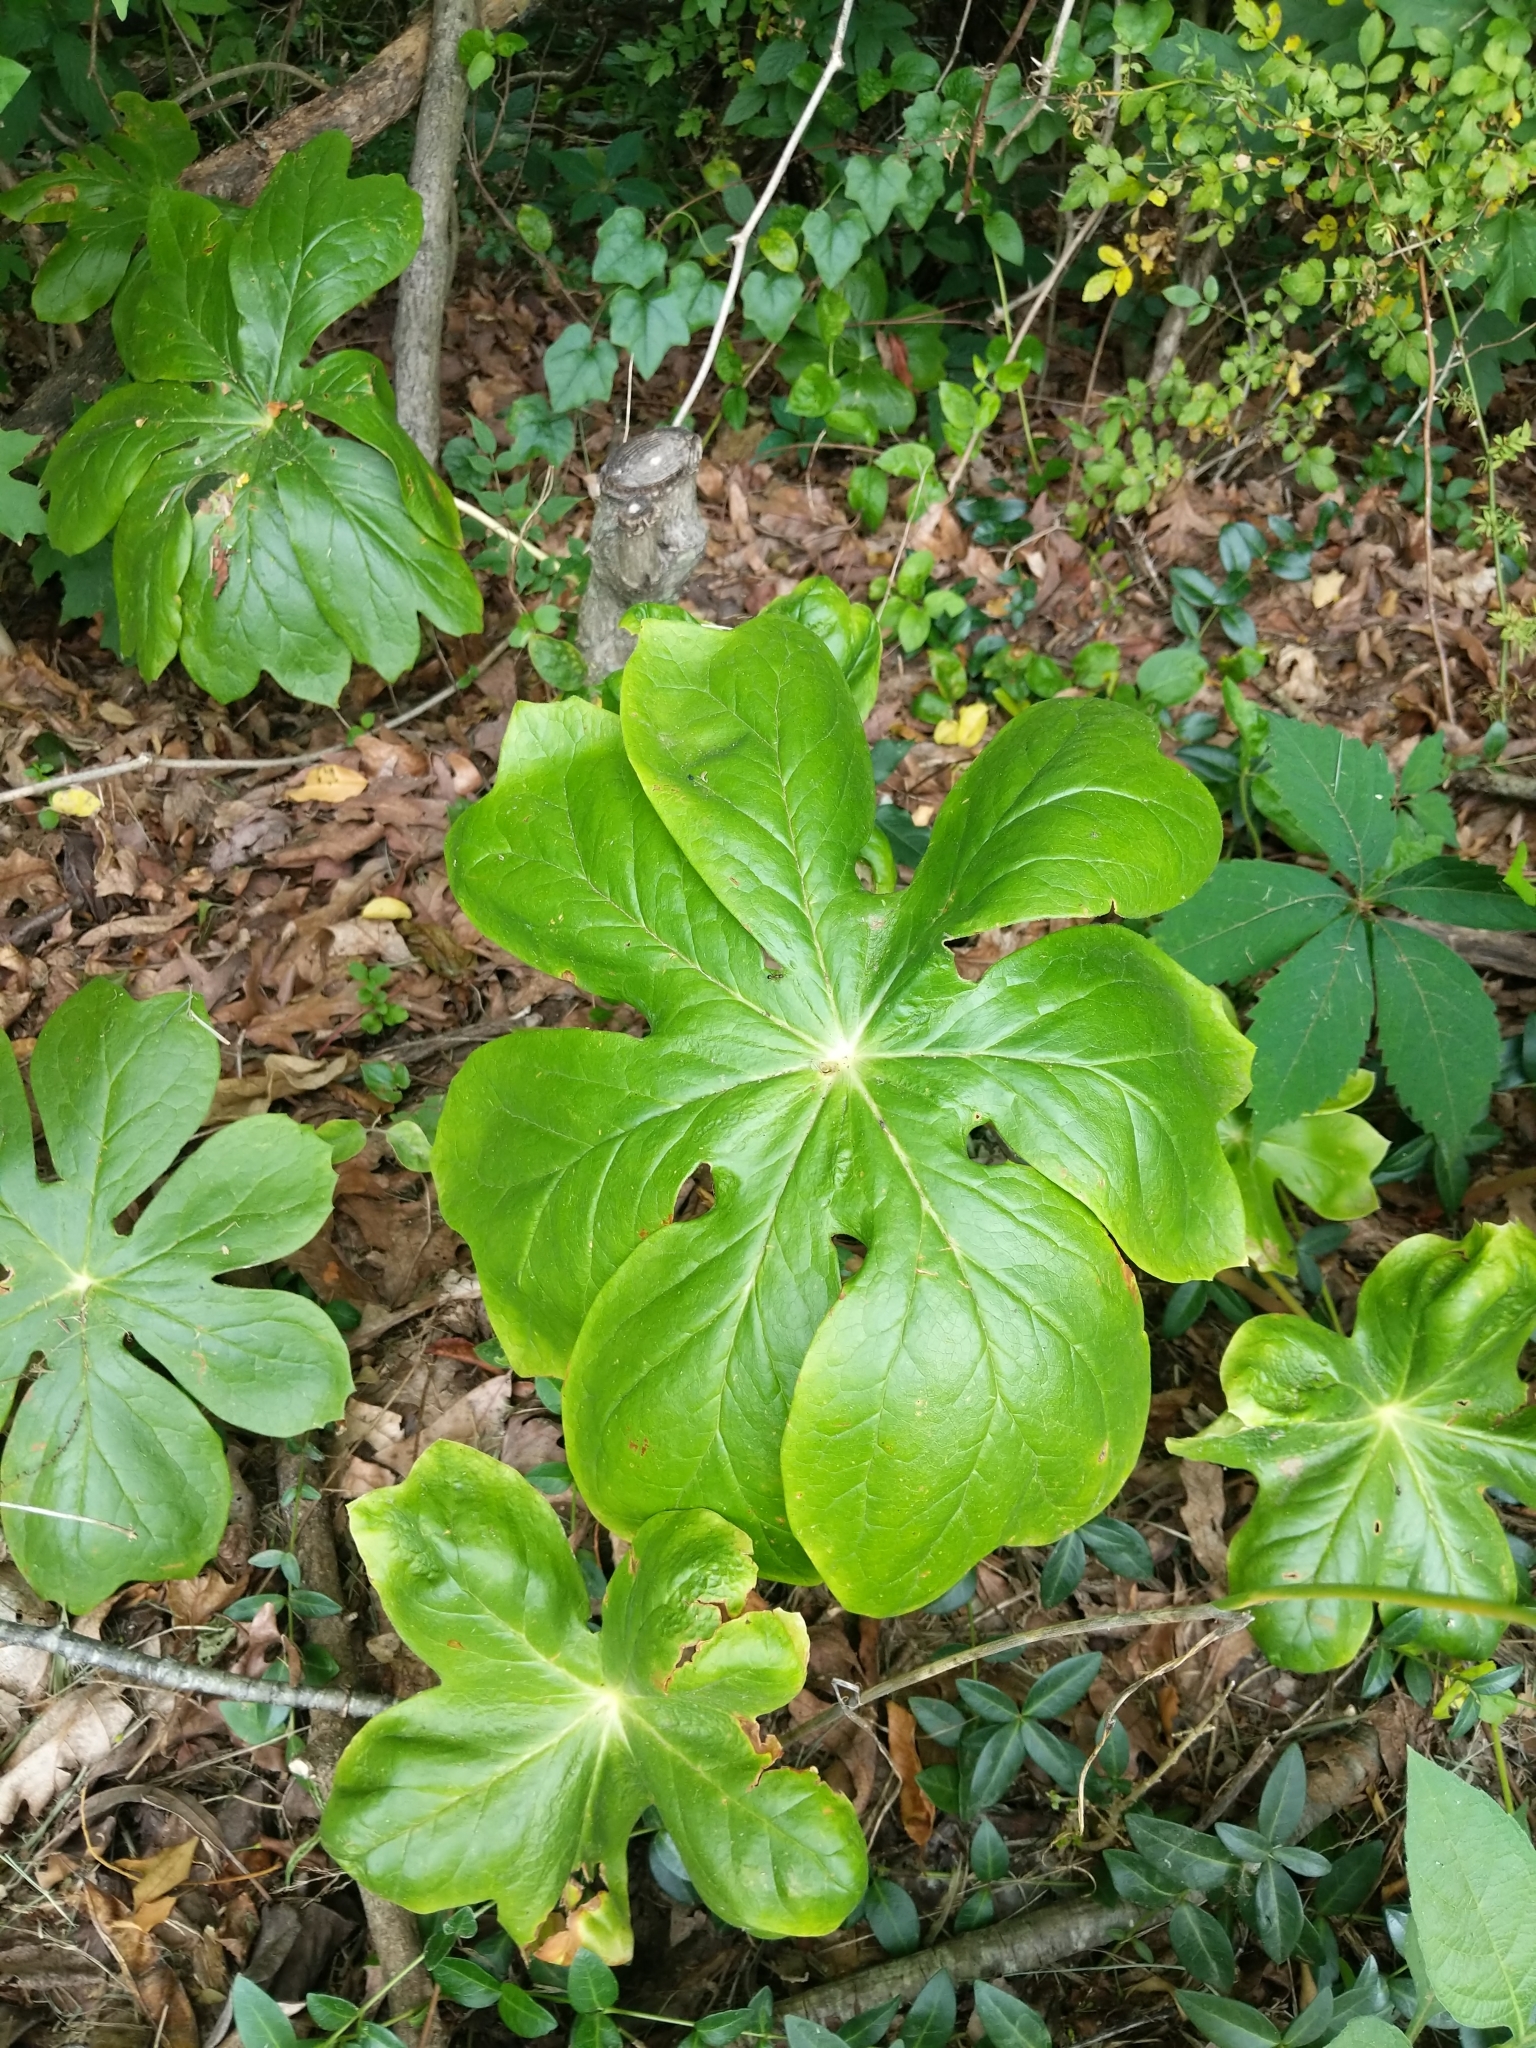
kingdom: Plantae
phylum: Tracheophyta
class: Magnoliopsida
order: Ranunculales
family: Berberidaceae
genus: Podophyllum
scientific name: Podophyllum peltatum
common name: Wild mandrake
